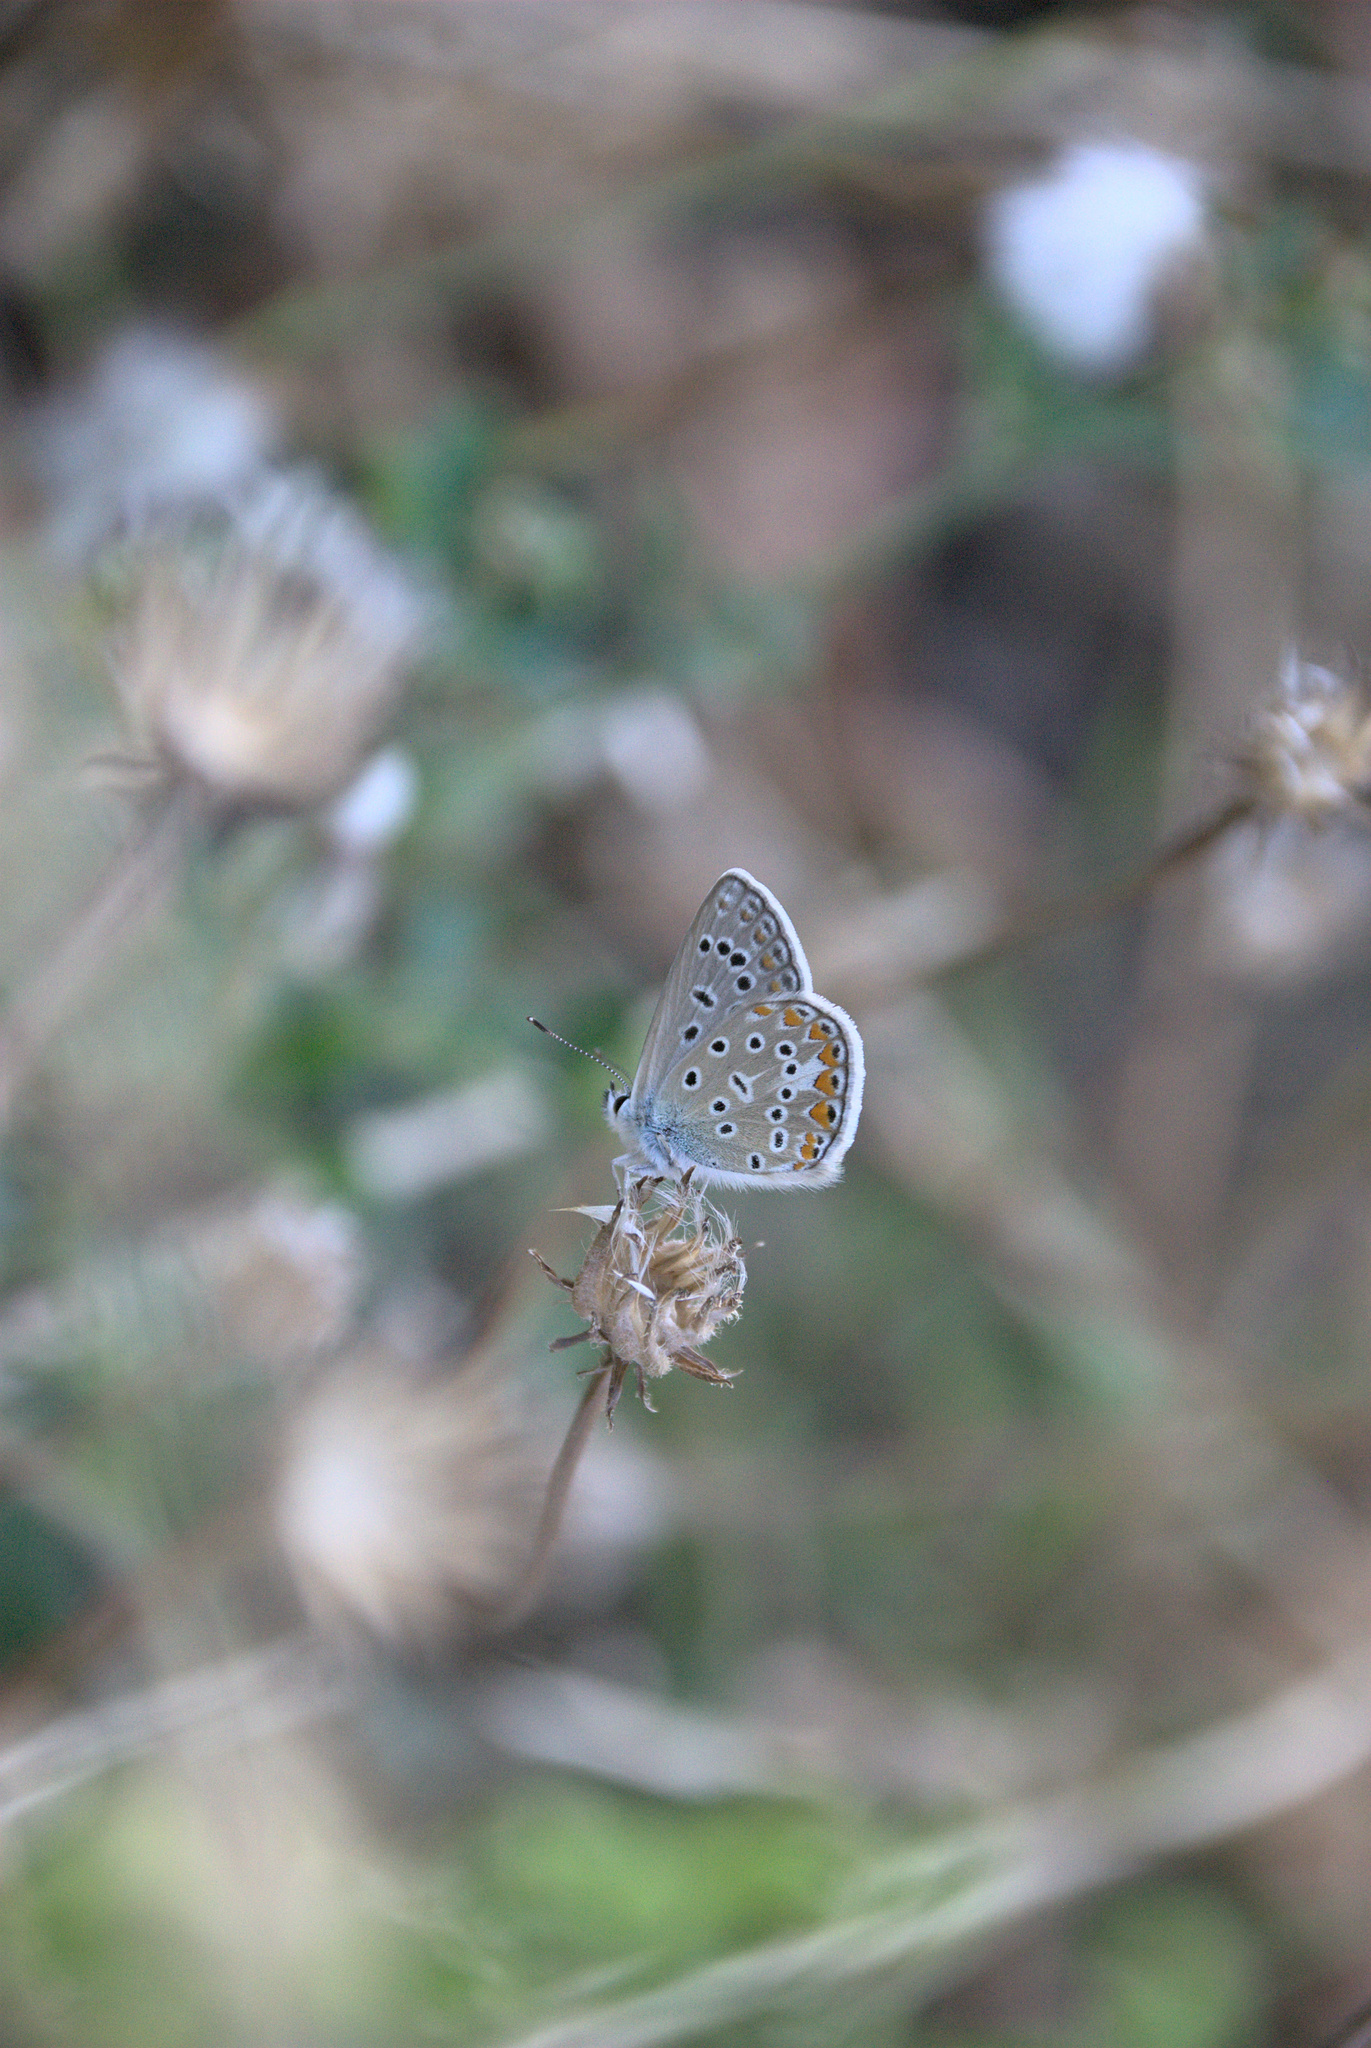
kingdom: Animalia
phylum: Arthropoda
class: Insecta
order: Lepidoptera
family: Lycaenidae
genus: Polyommatus
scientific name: Polyommatus icarus
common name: Common blue
